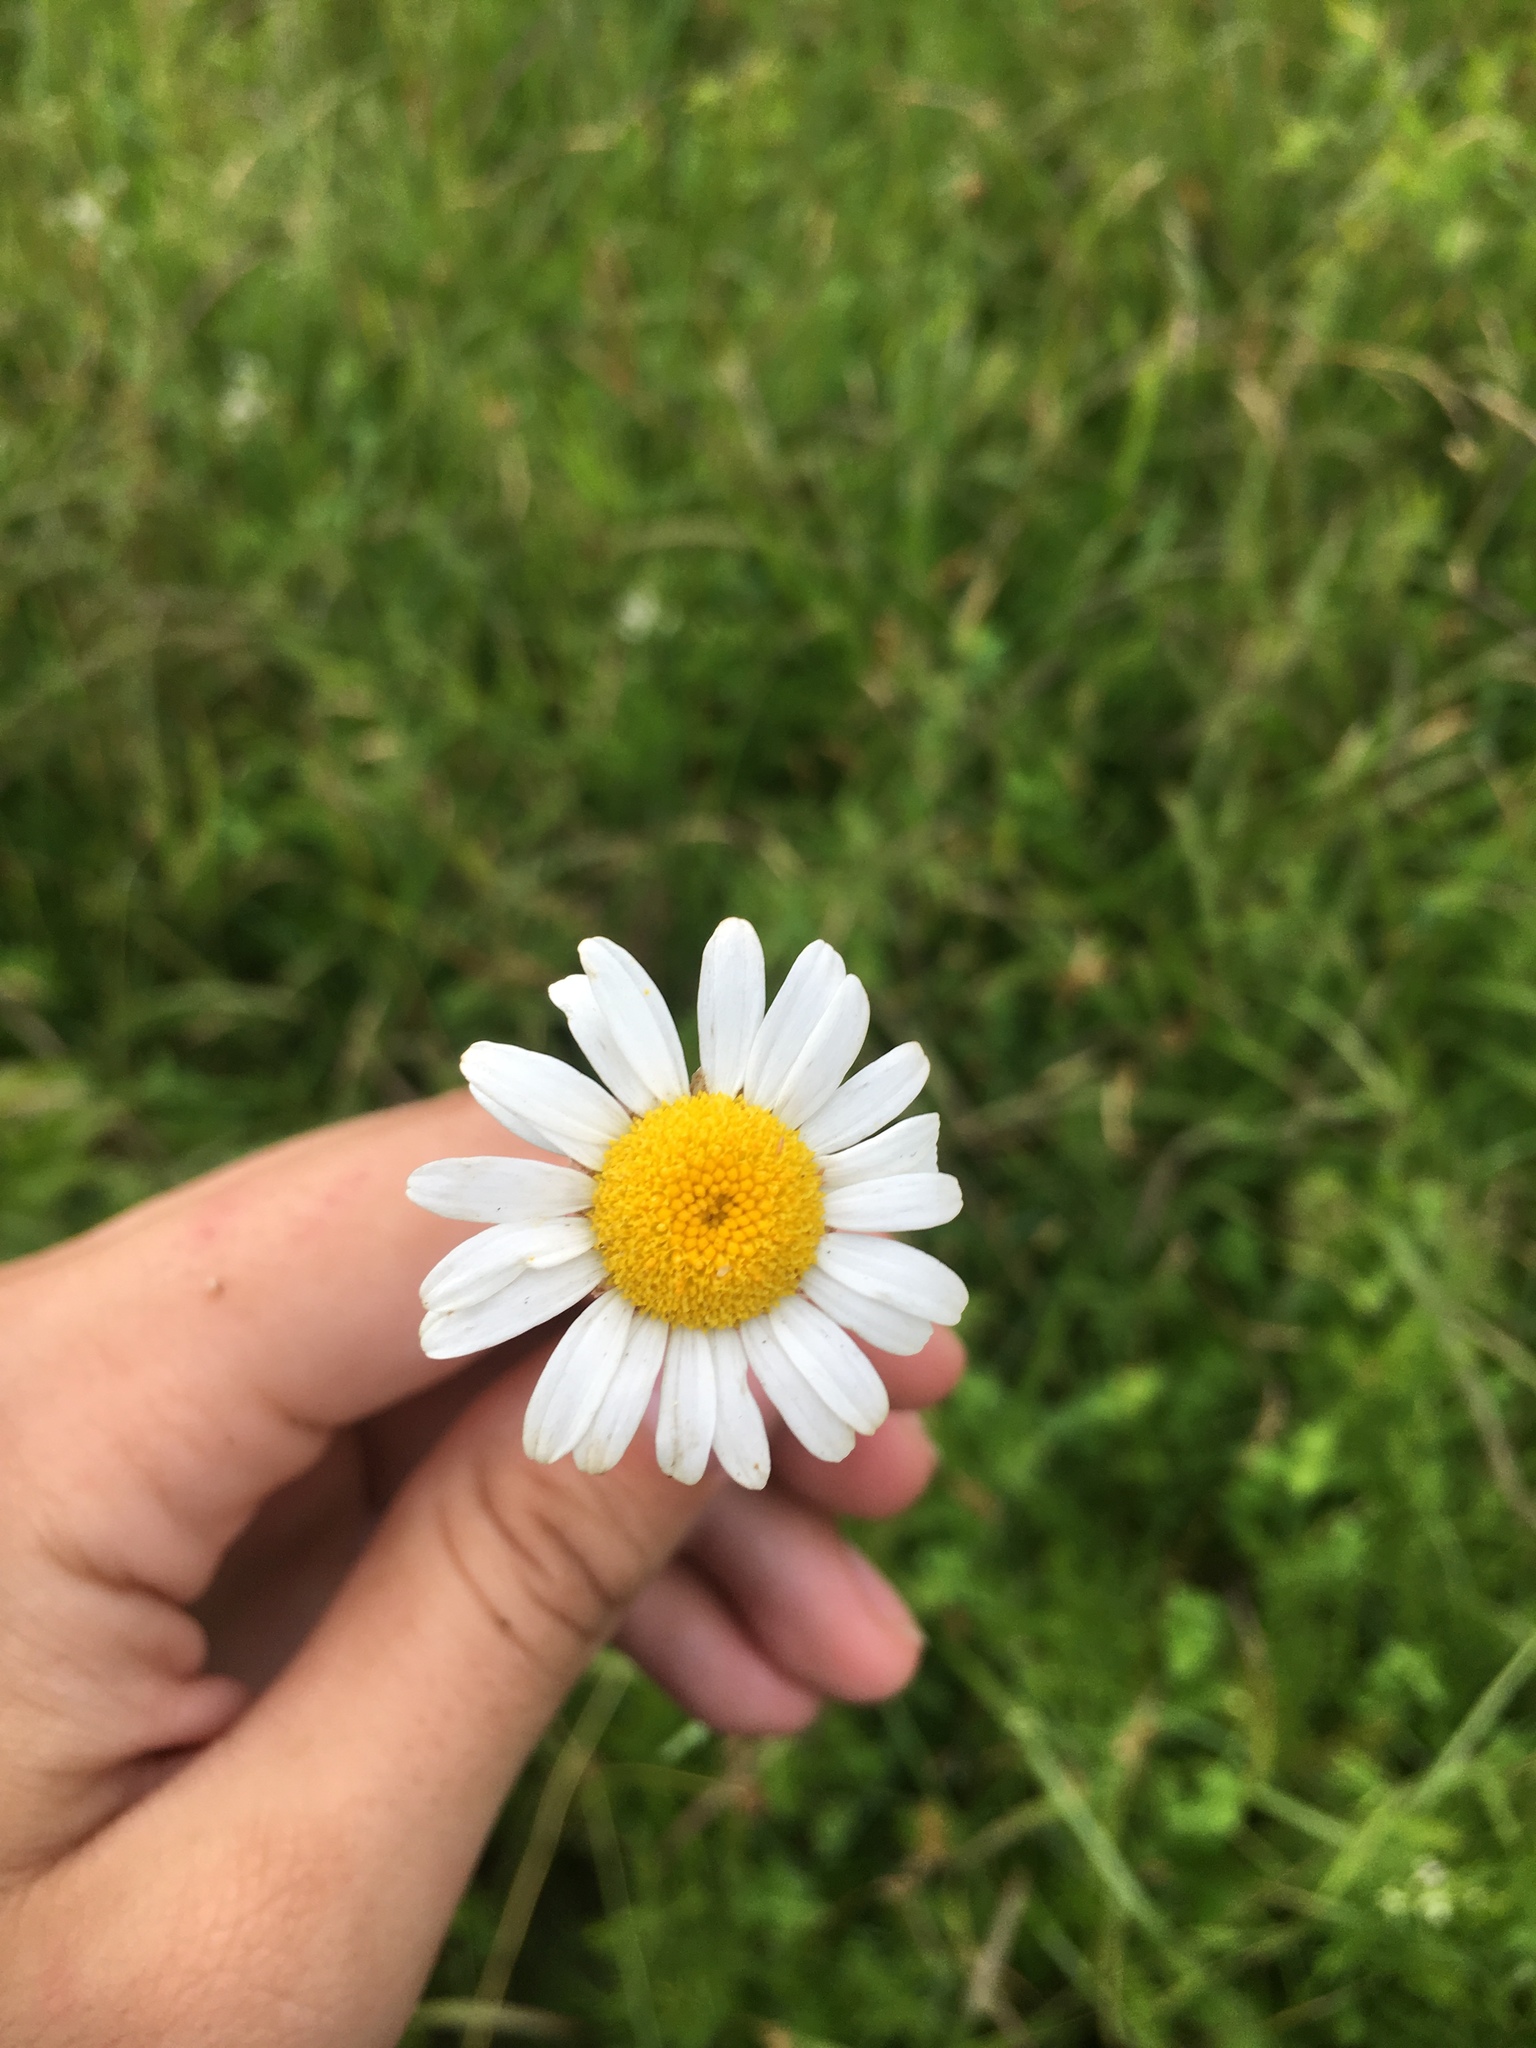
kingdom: Plantae
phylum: Tracheophyta
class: Magnoliopsida
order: Asterales
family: Asteraceae
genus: Leucanthemum
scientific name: Leucanthemum vulgare
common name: Oxeye daisy
